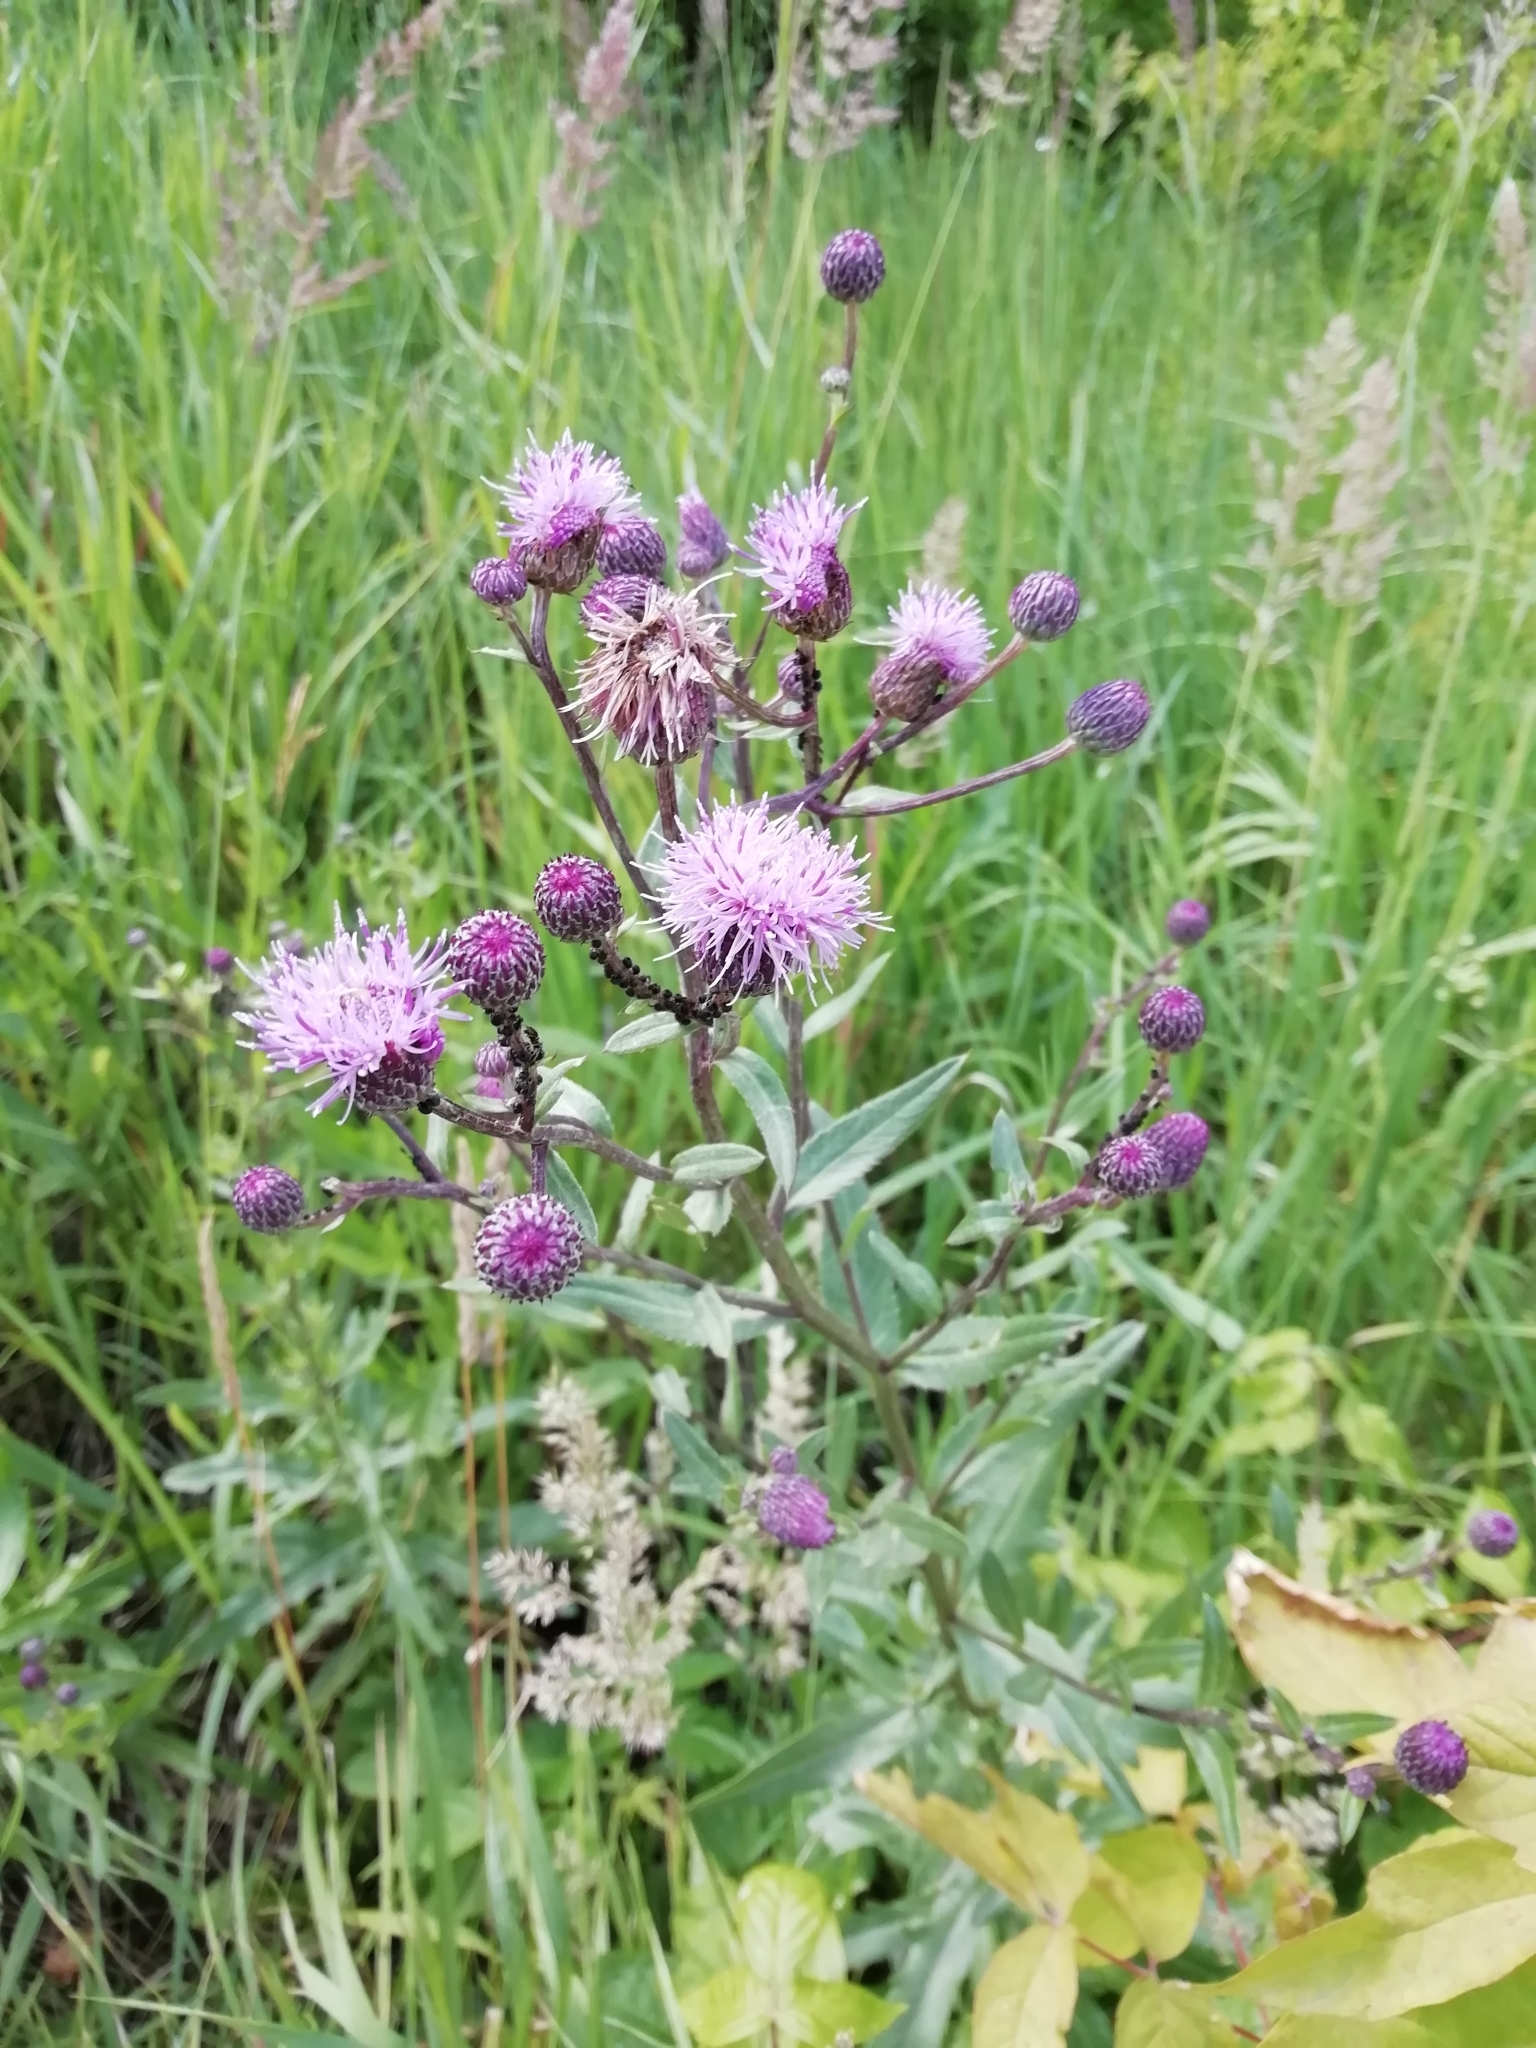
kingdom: Plantae
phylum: Tracheophyta
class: Magnoliopsida
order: Asterales
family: Asteraceae
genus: Cirsium
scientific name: Cirsium arvense
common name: Creeping thistle
